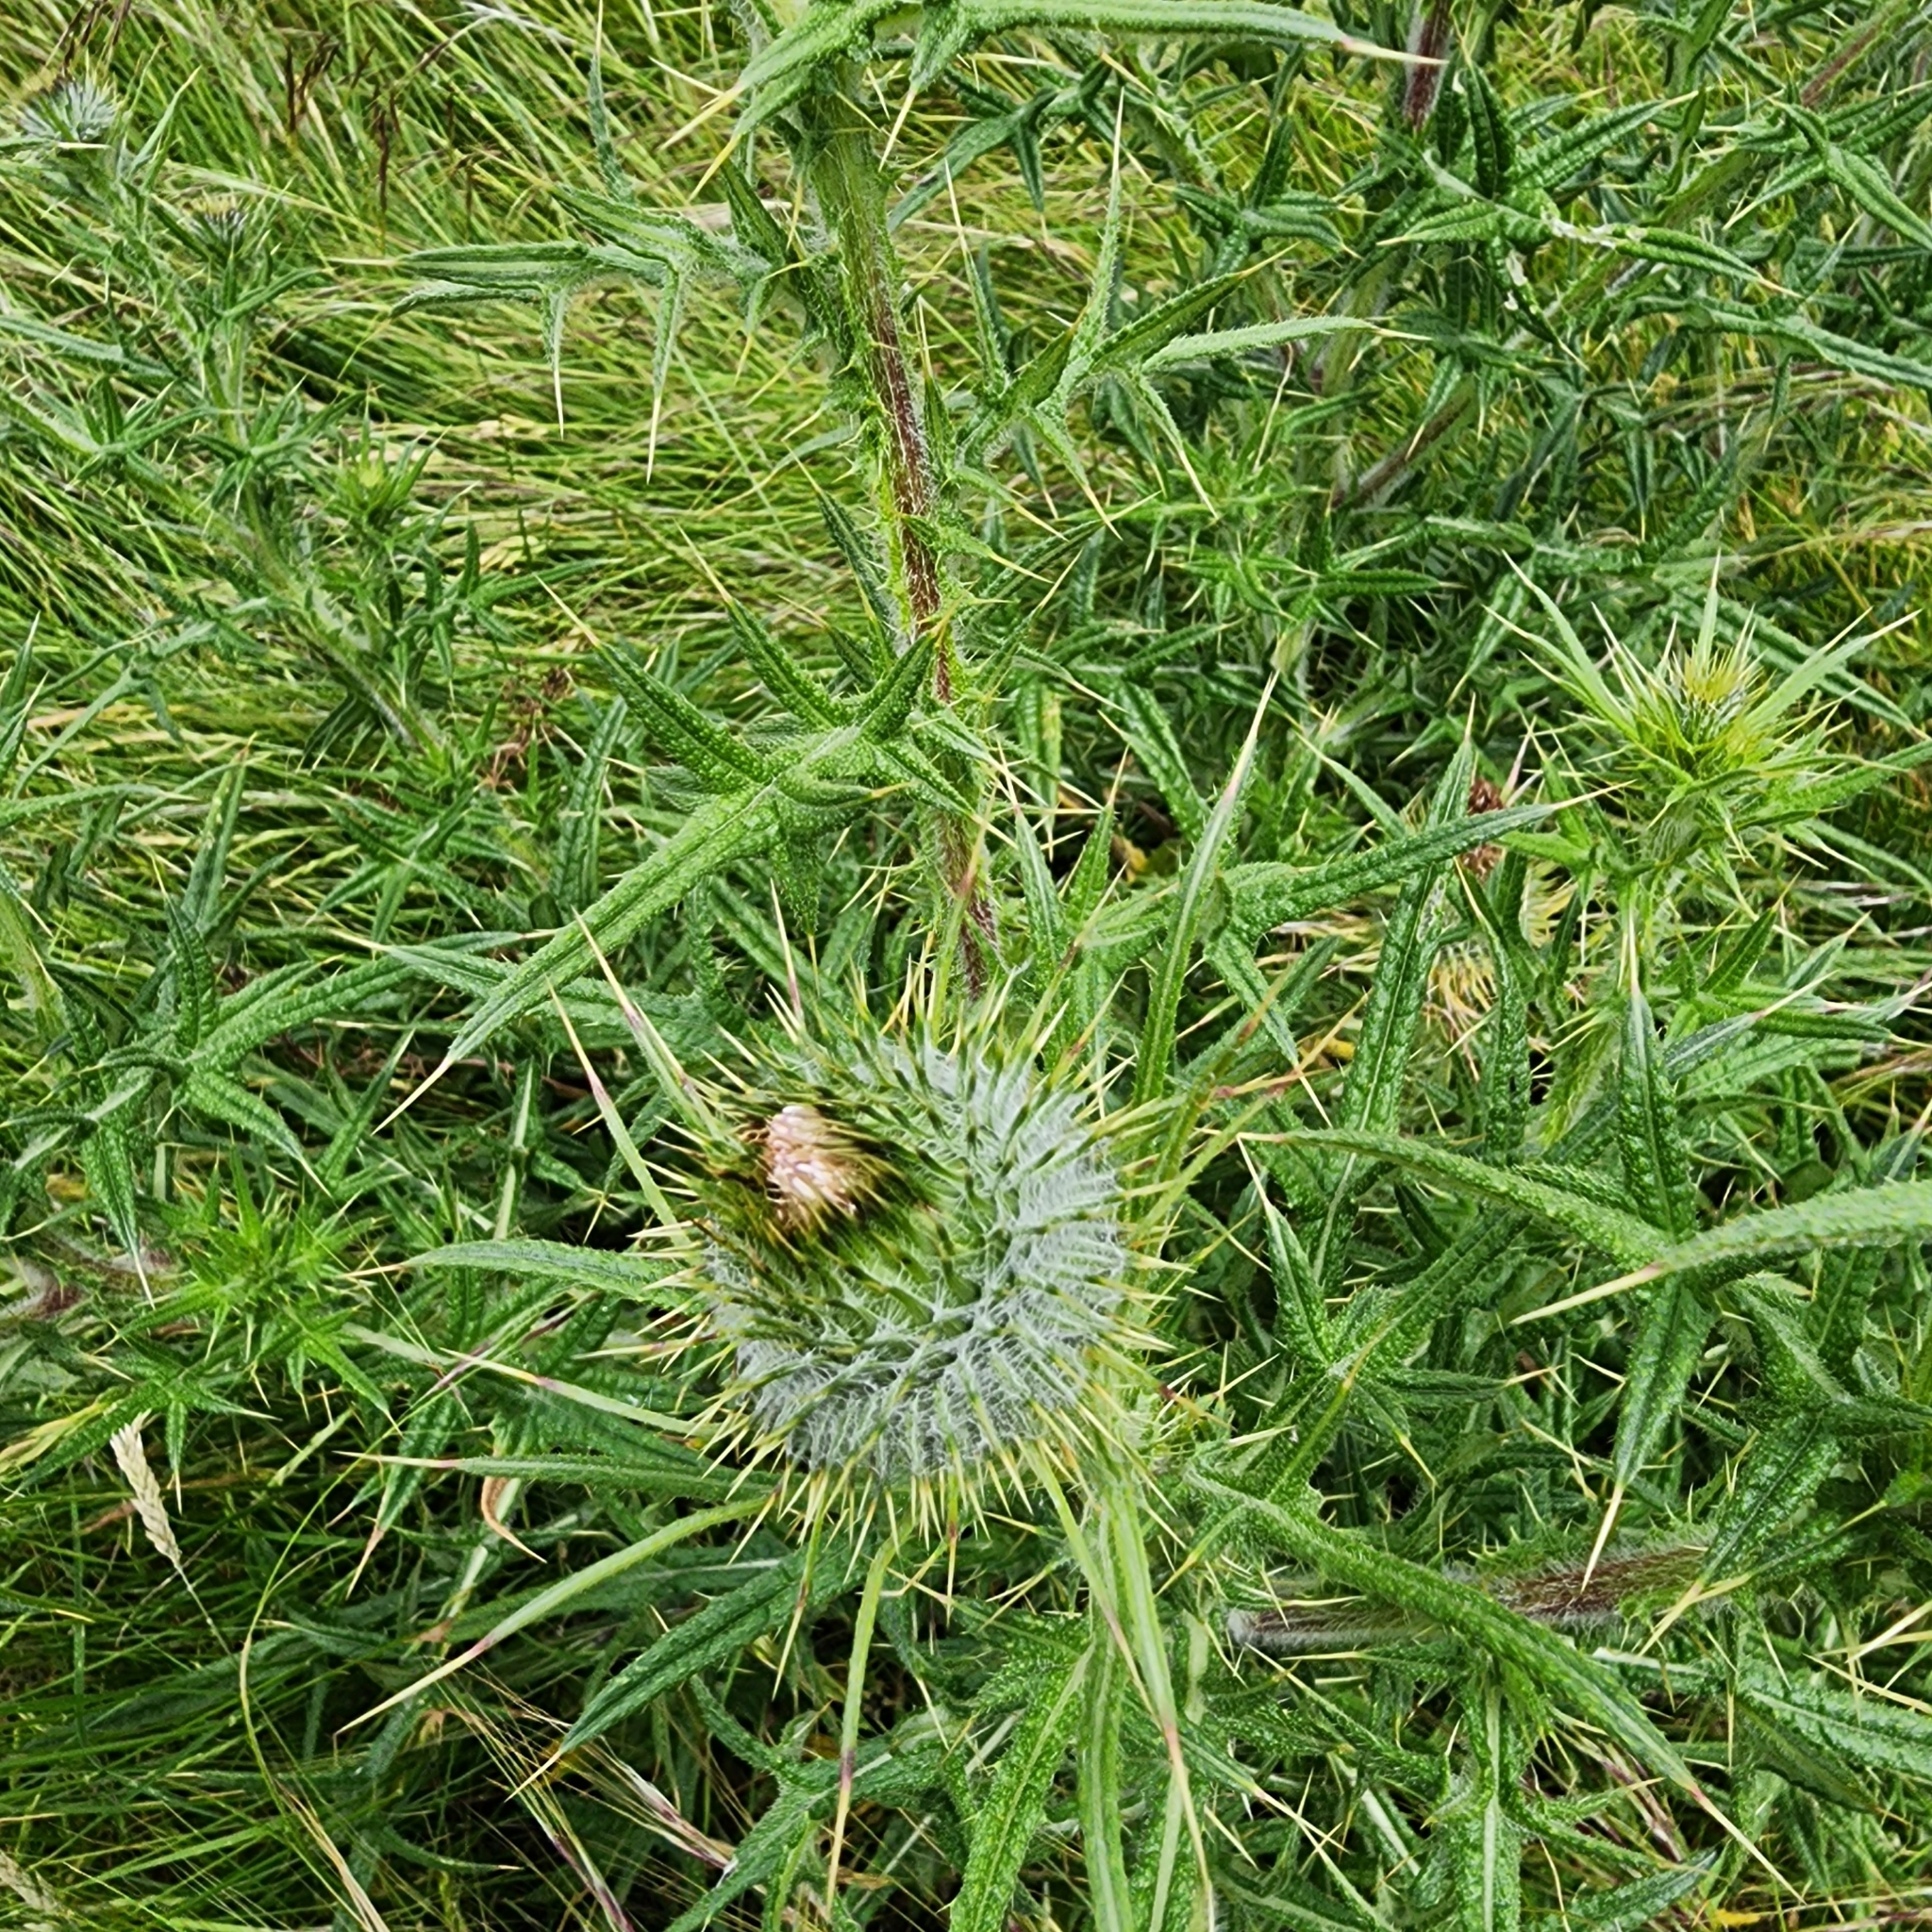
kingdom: Plantae
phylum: Tracheophyta
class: Magnoliopsida
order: Asterales
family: Asteraceae
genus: Cirsium
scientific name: Cirsium vulgare
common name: Bull thistle
